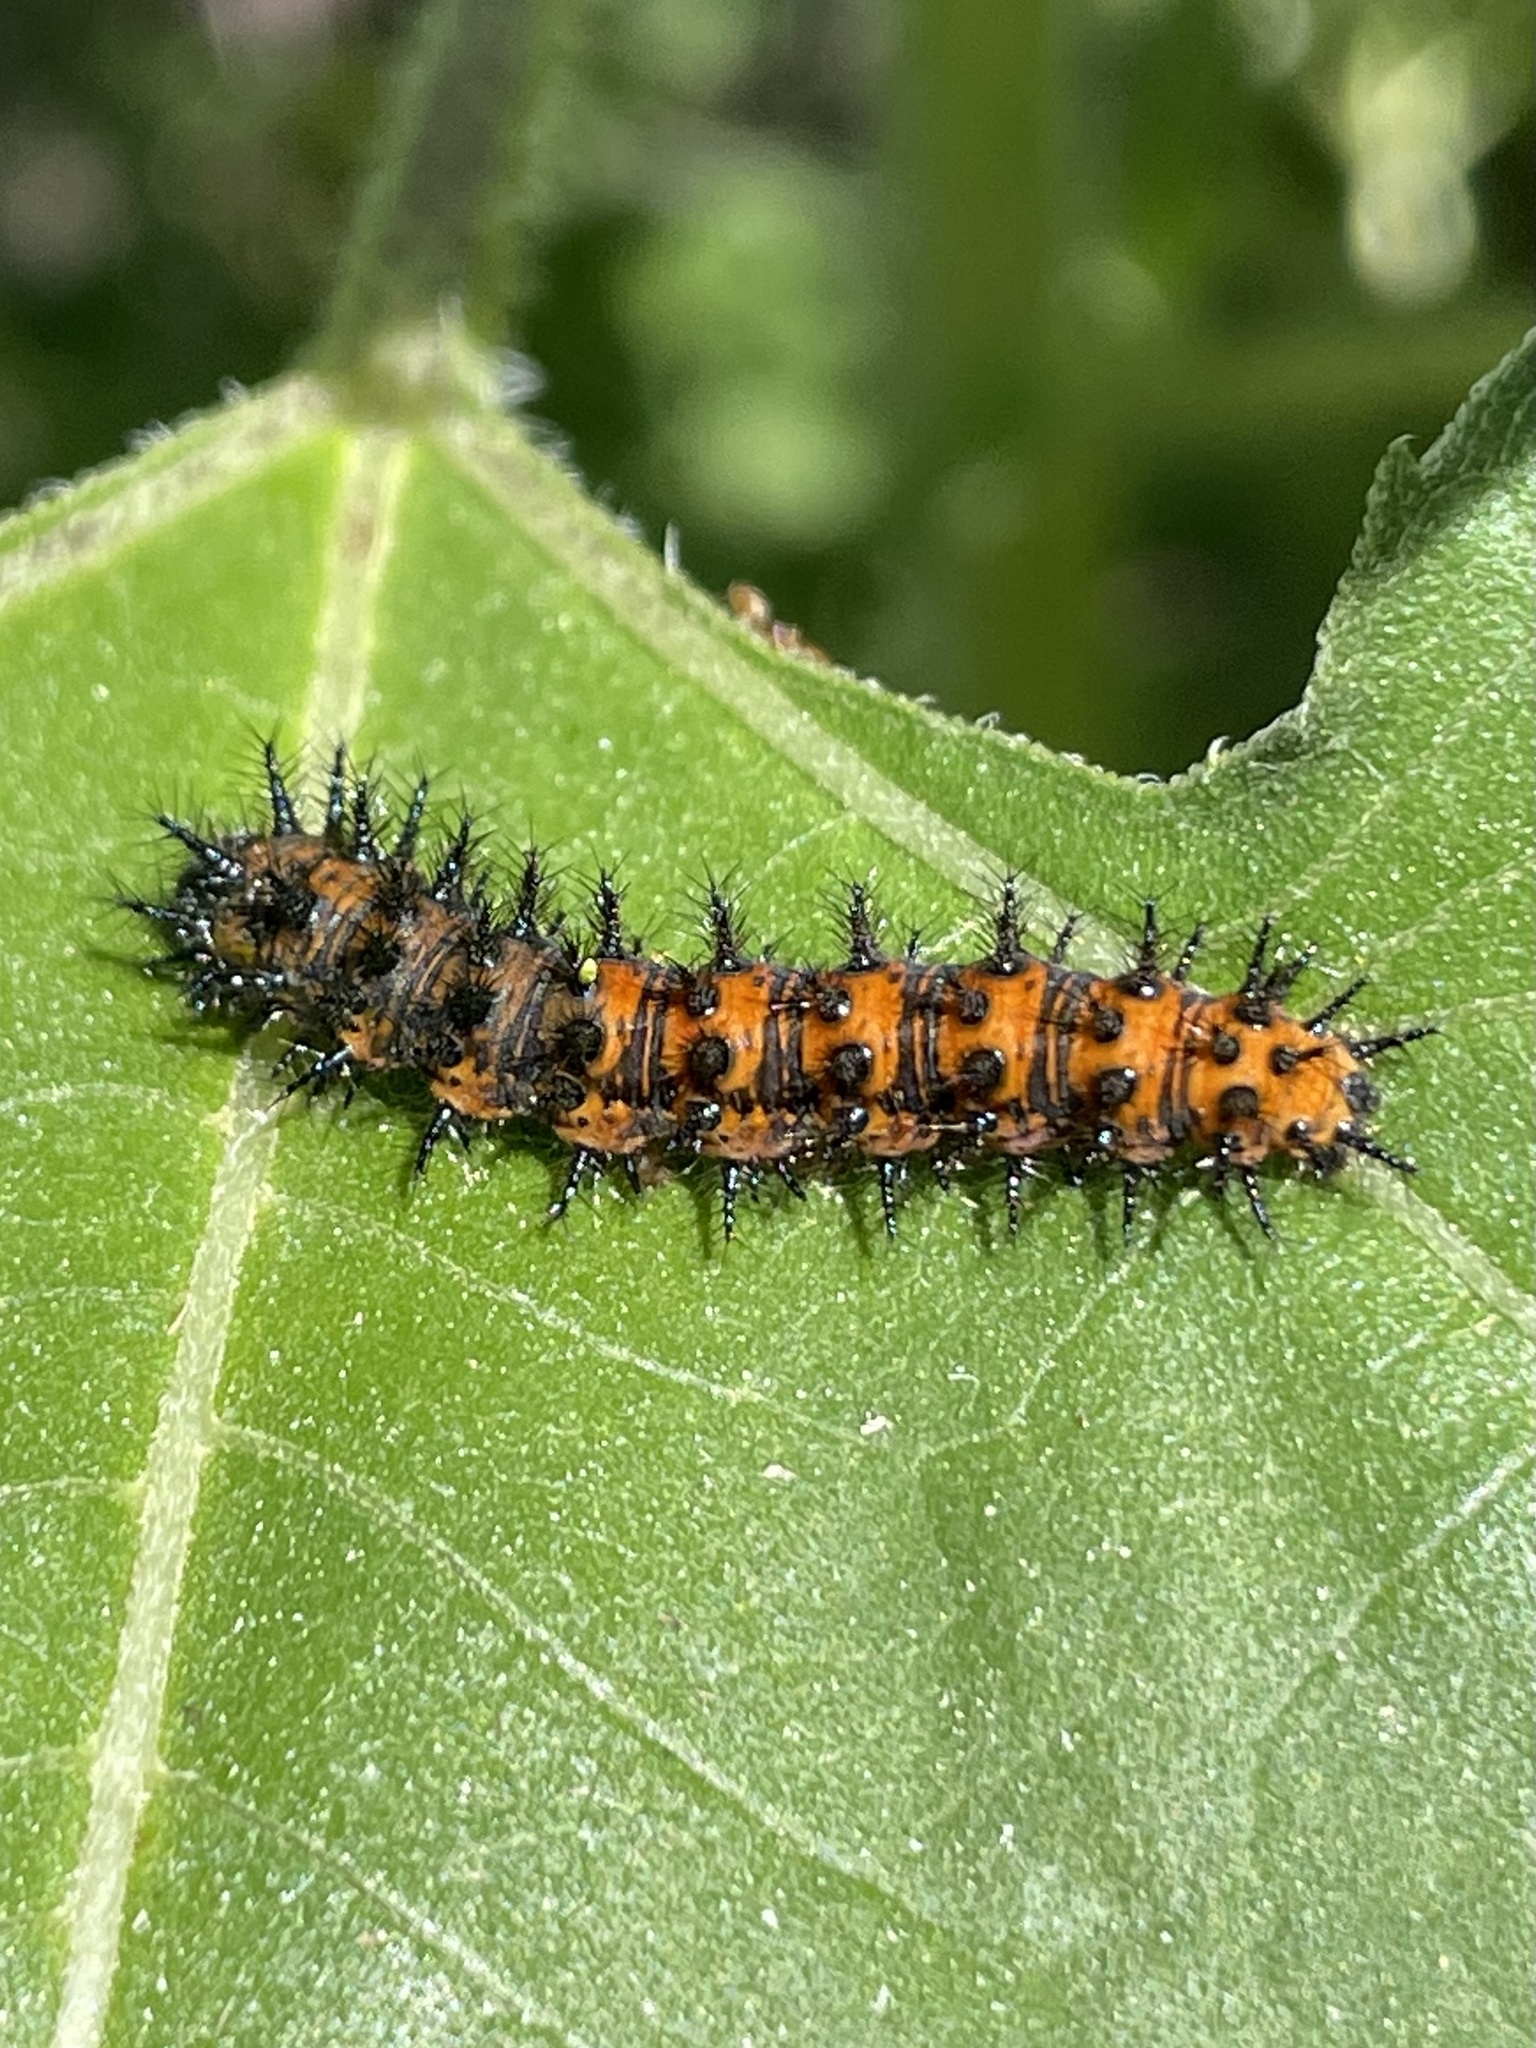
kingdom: Animalia
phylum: Arthropoda
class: Insecta
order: Lepidoptera
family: Nymphalidae
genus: Chlosyne
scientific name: Chlosyne lacinia
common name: Bordered patch
